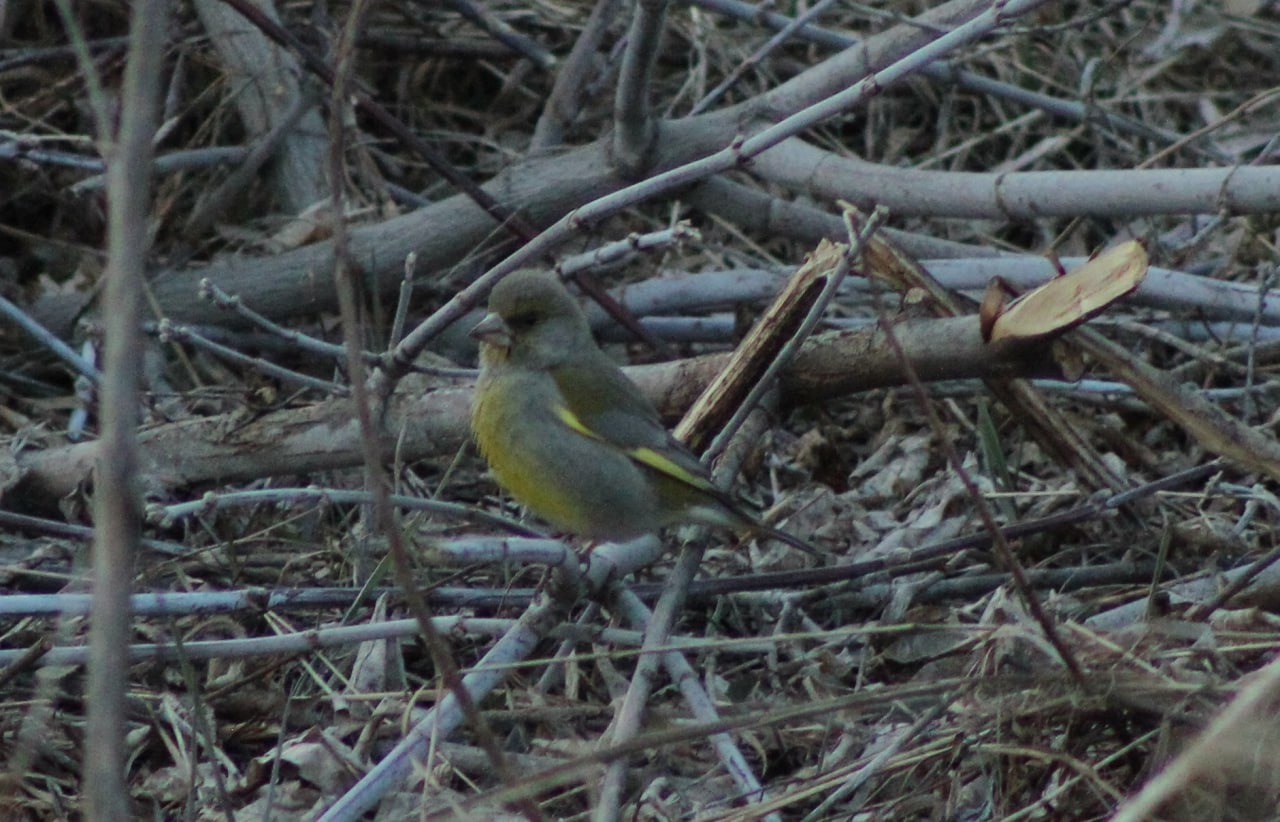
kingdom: Plantae
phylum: Tracheophyta
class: Liliopsida
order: Poales
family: Poaceae
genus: Chloris
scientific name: Chloris chloris
